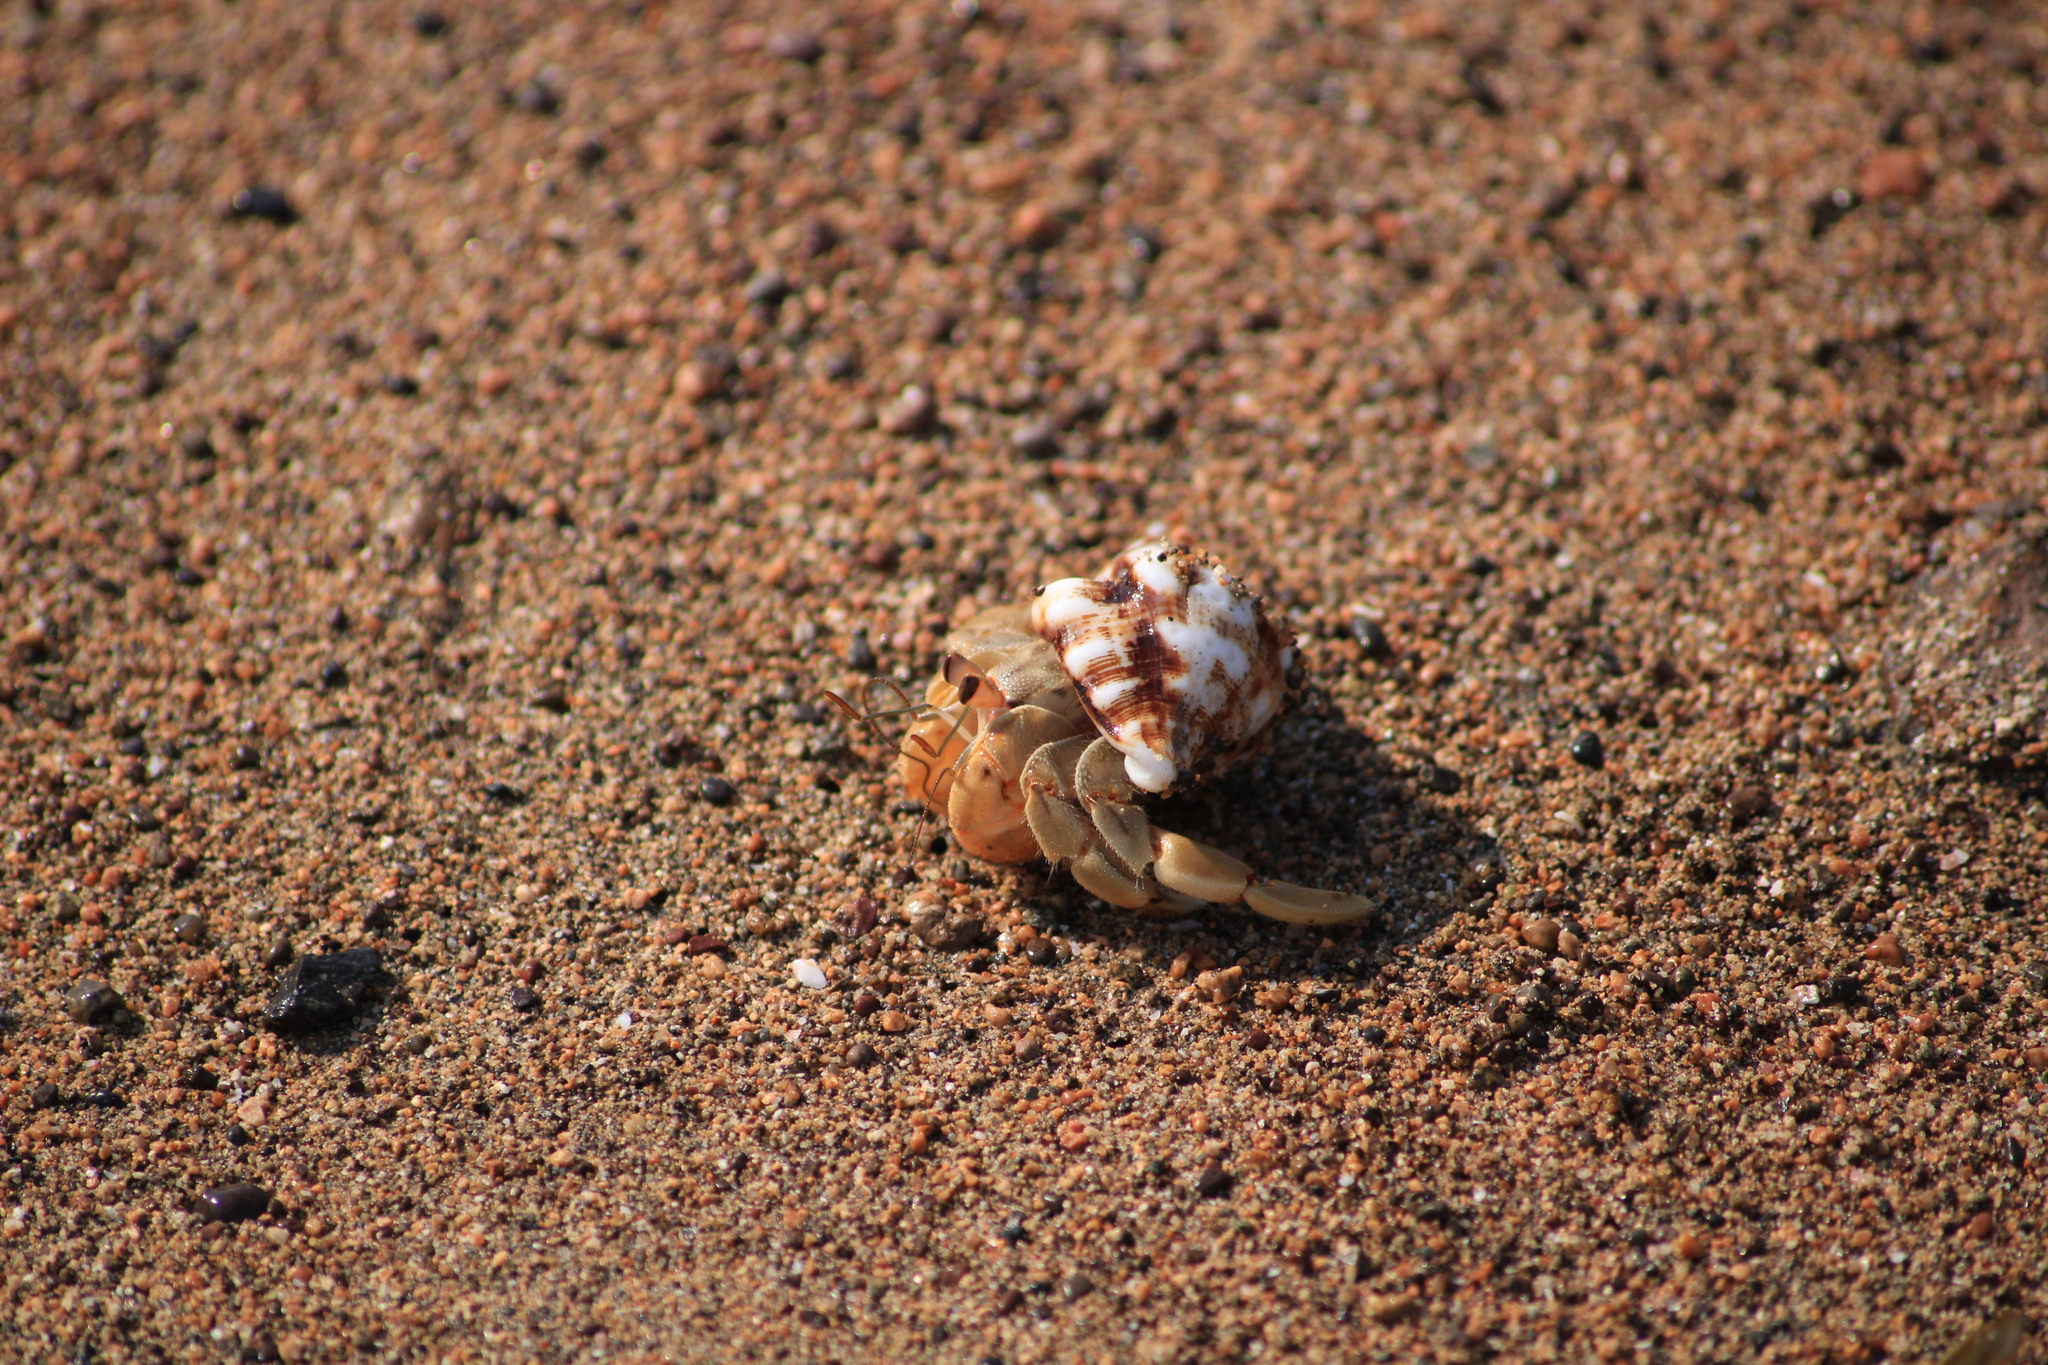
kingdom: Animalia
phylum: Arthropoda
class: Malacostraca
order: Decapoda
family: Coenobitidae
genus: Coenobita
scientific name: Coenobita compressus
